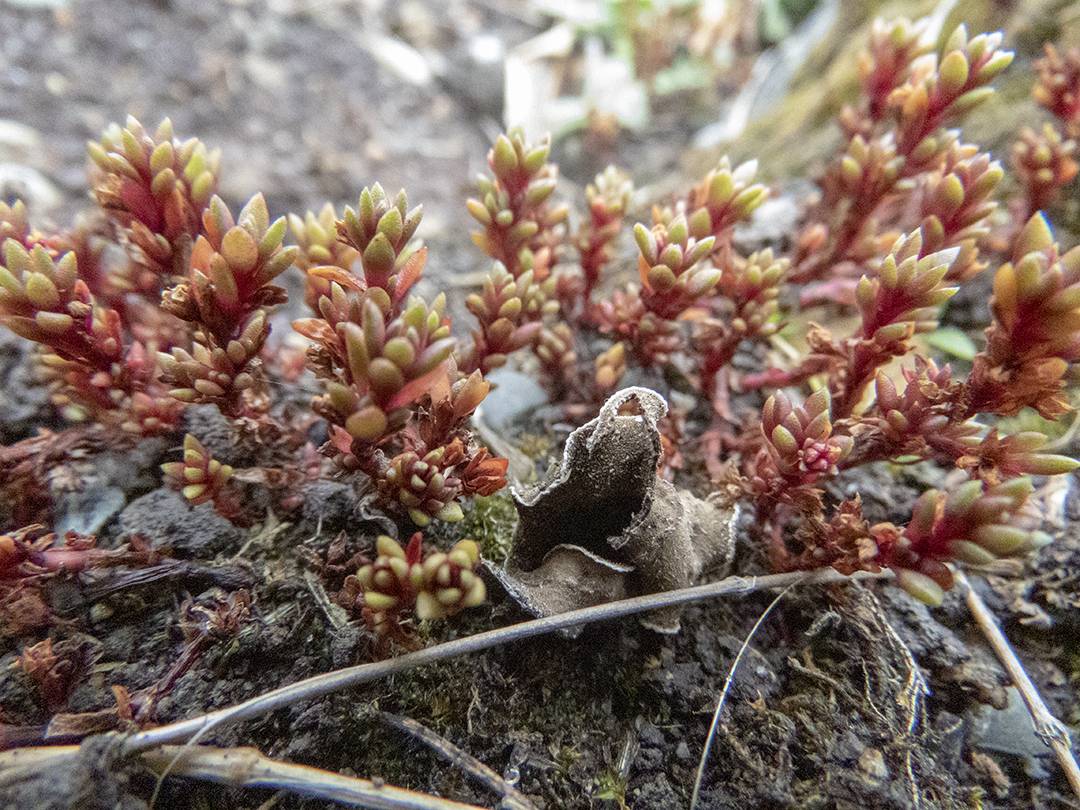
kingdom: Plantae
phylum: Tracheophyta
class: Magnoliopsida
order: Saxifragales
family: Crassulaceae
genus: Crassula
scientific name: Crassula moschata
